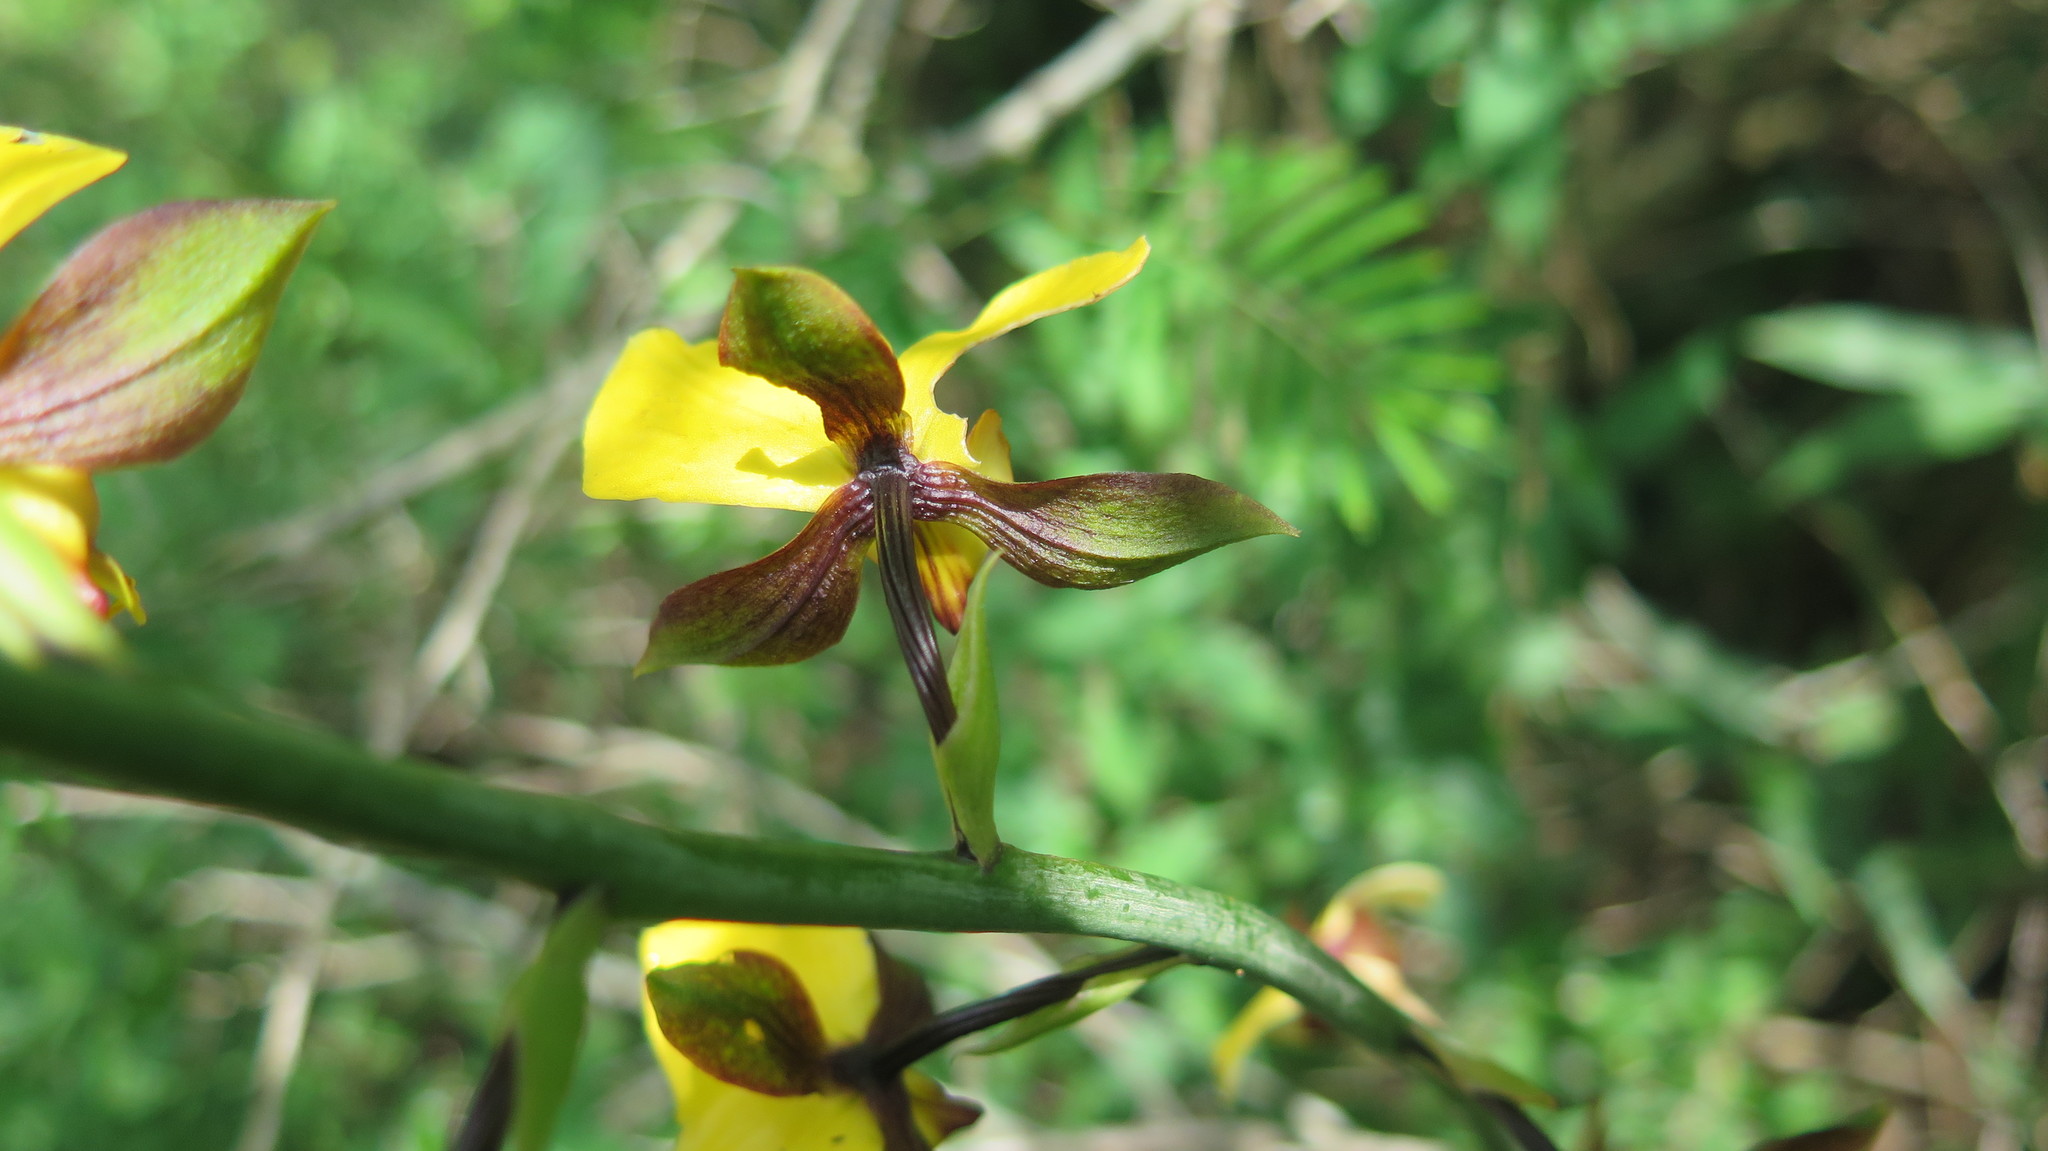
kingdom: Plantae
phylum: Tracheophyta
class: Liliopsida
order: Asparagales
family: Orchidaceae
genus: Eulophia
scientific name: Eulophia streptopetala
